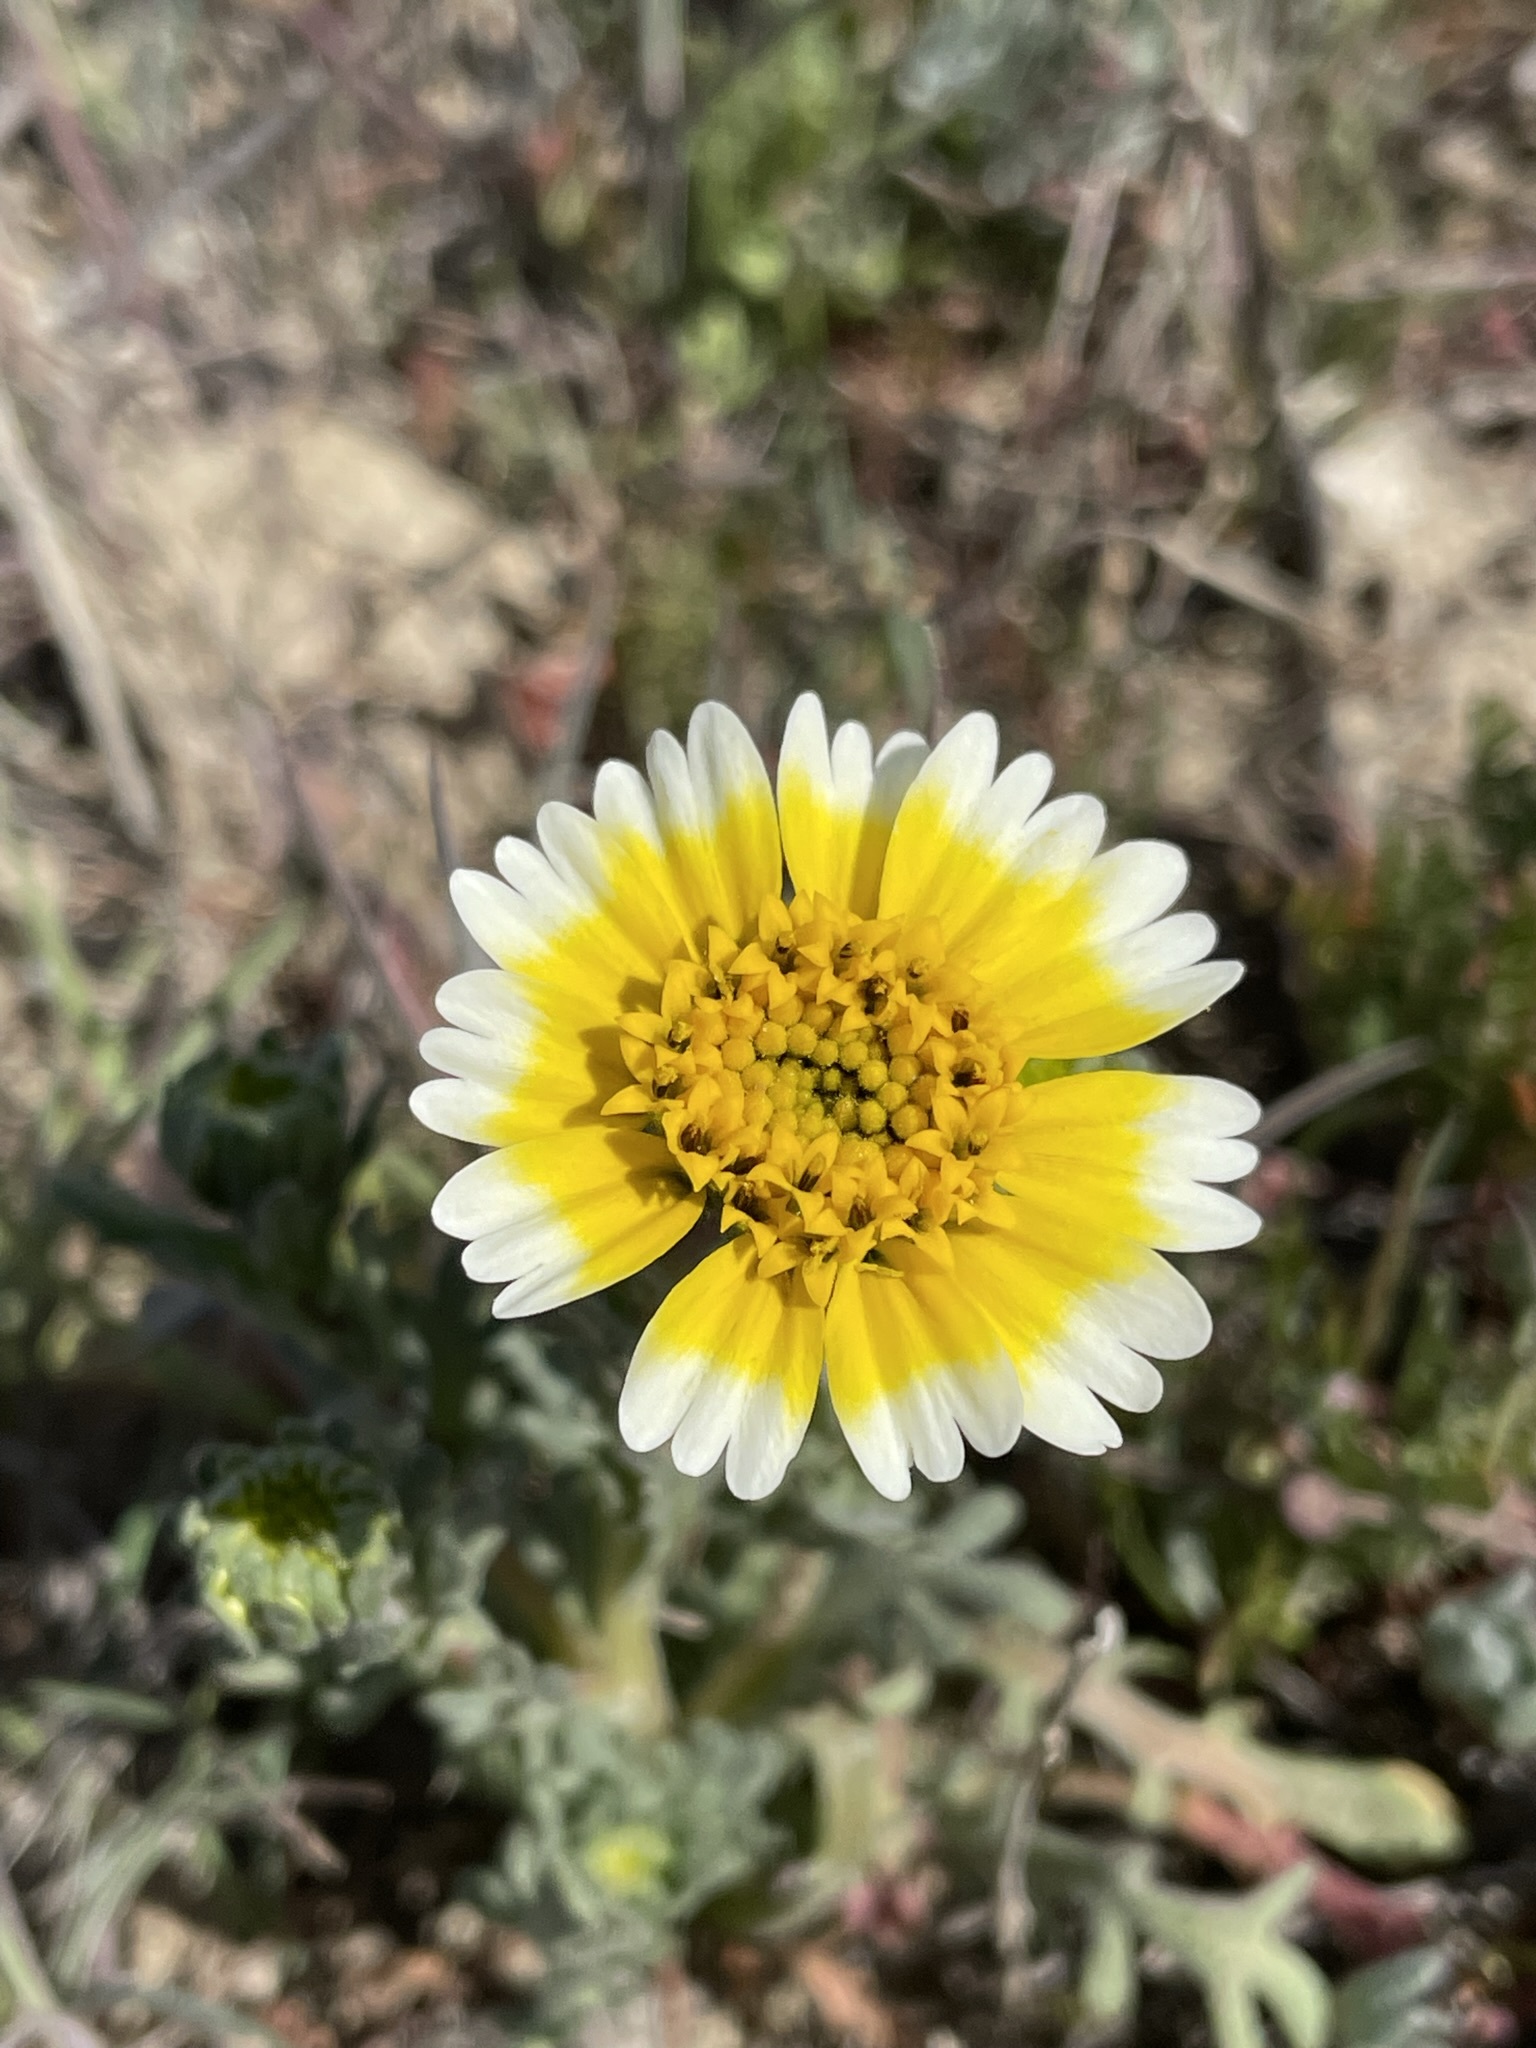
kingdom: Plantae
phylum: Tracheophyta
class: Magnoliopsida
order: Asterales
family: Asteraceae
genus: Layia
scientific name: Layia munzii
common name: Munz's tidy-tips
